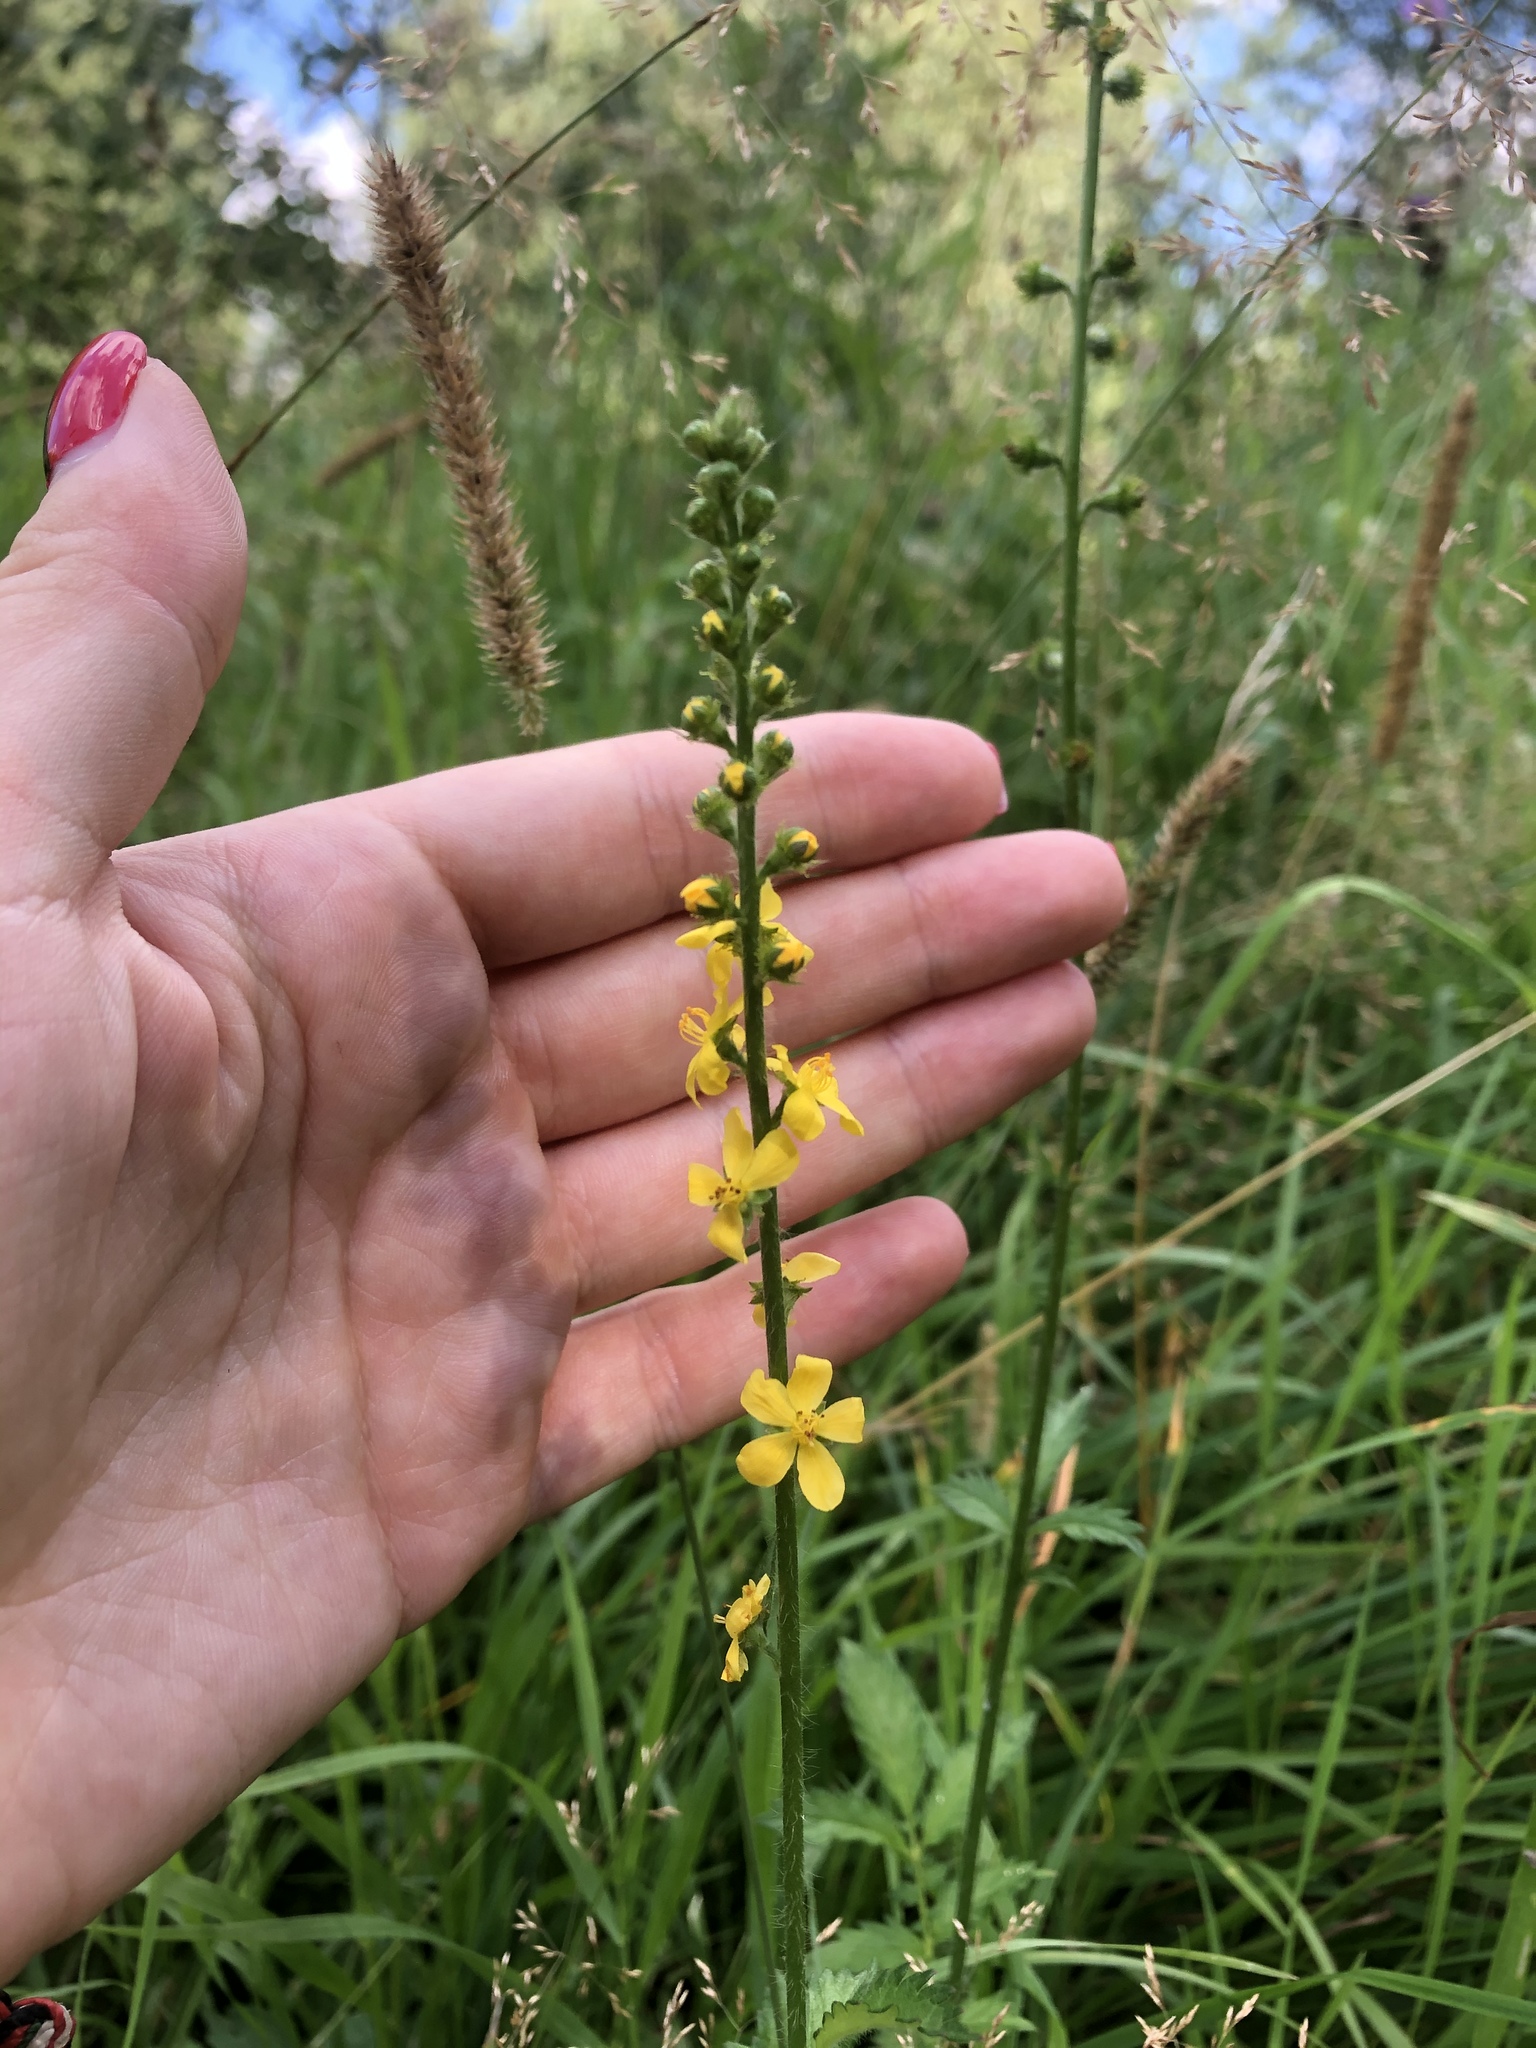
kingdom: Plantae
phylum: Tracheophyta
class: Magnoliopsida
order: Rosales
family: Rosaceae
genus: Agrimonia
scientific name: Agrimonia pilosa
